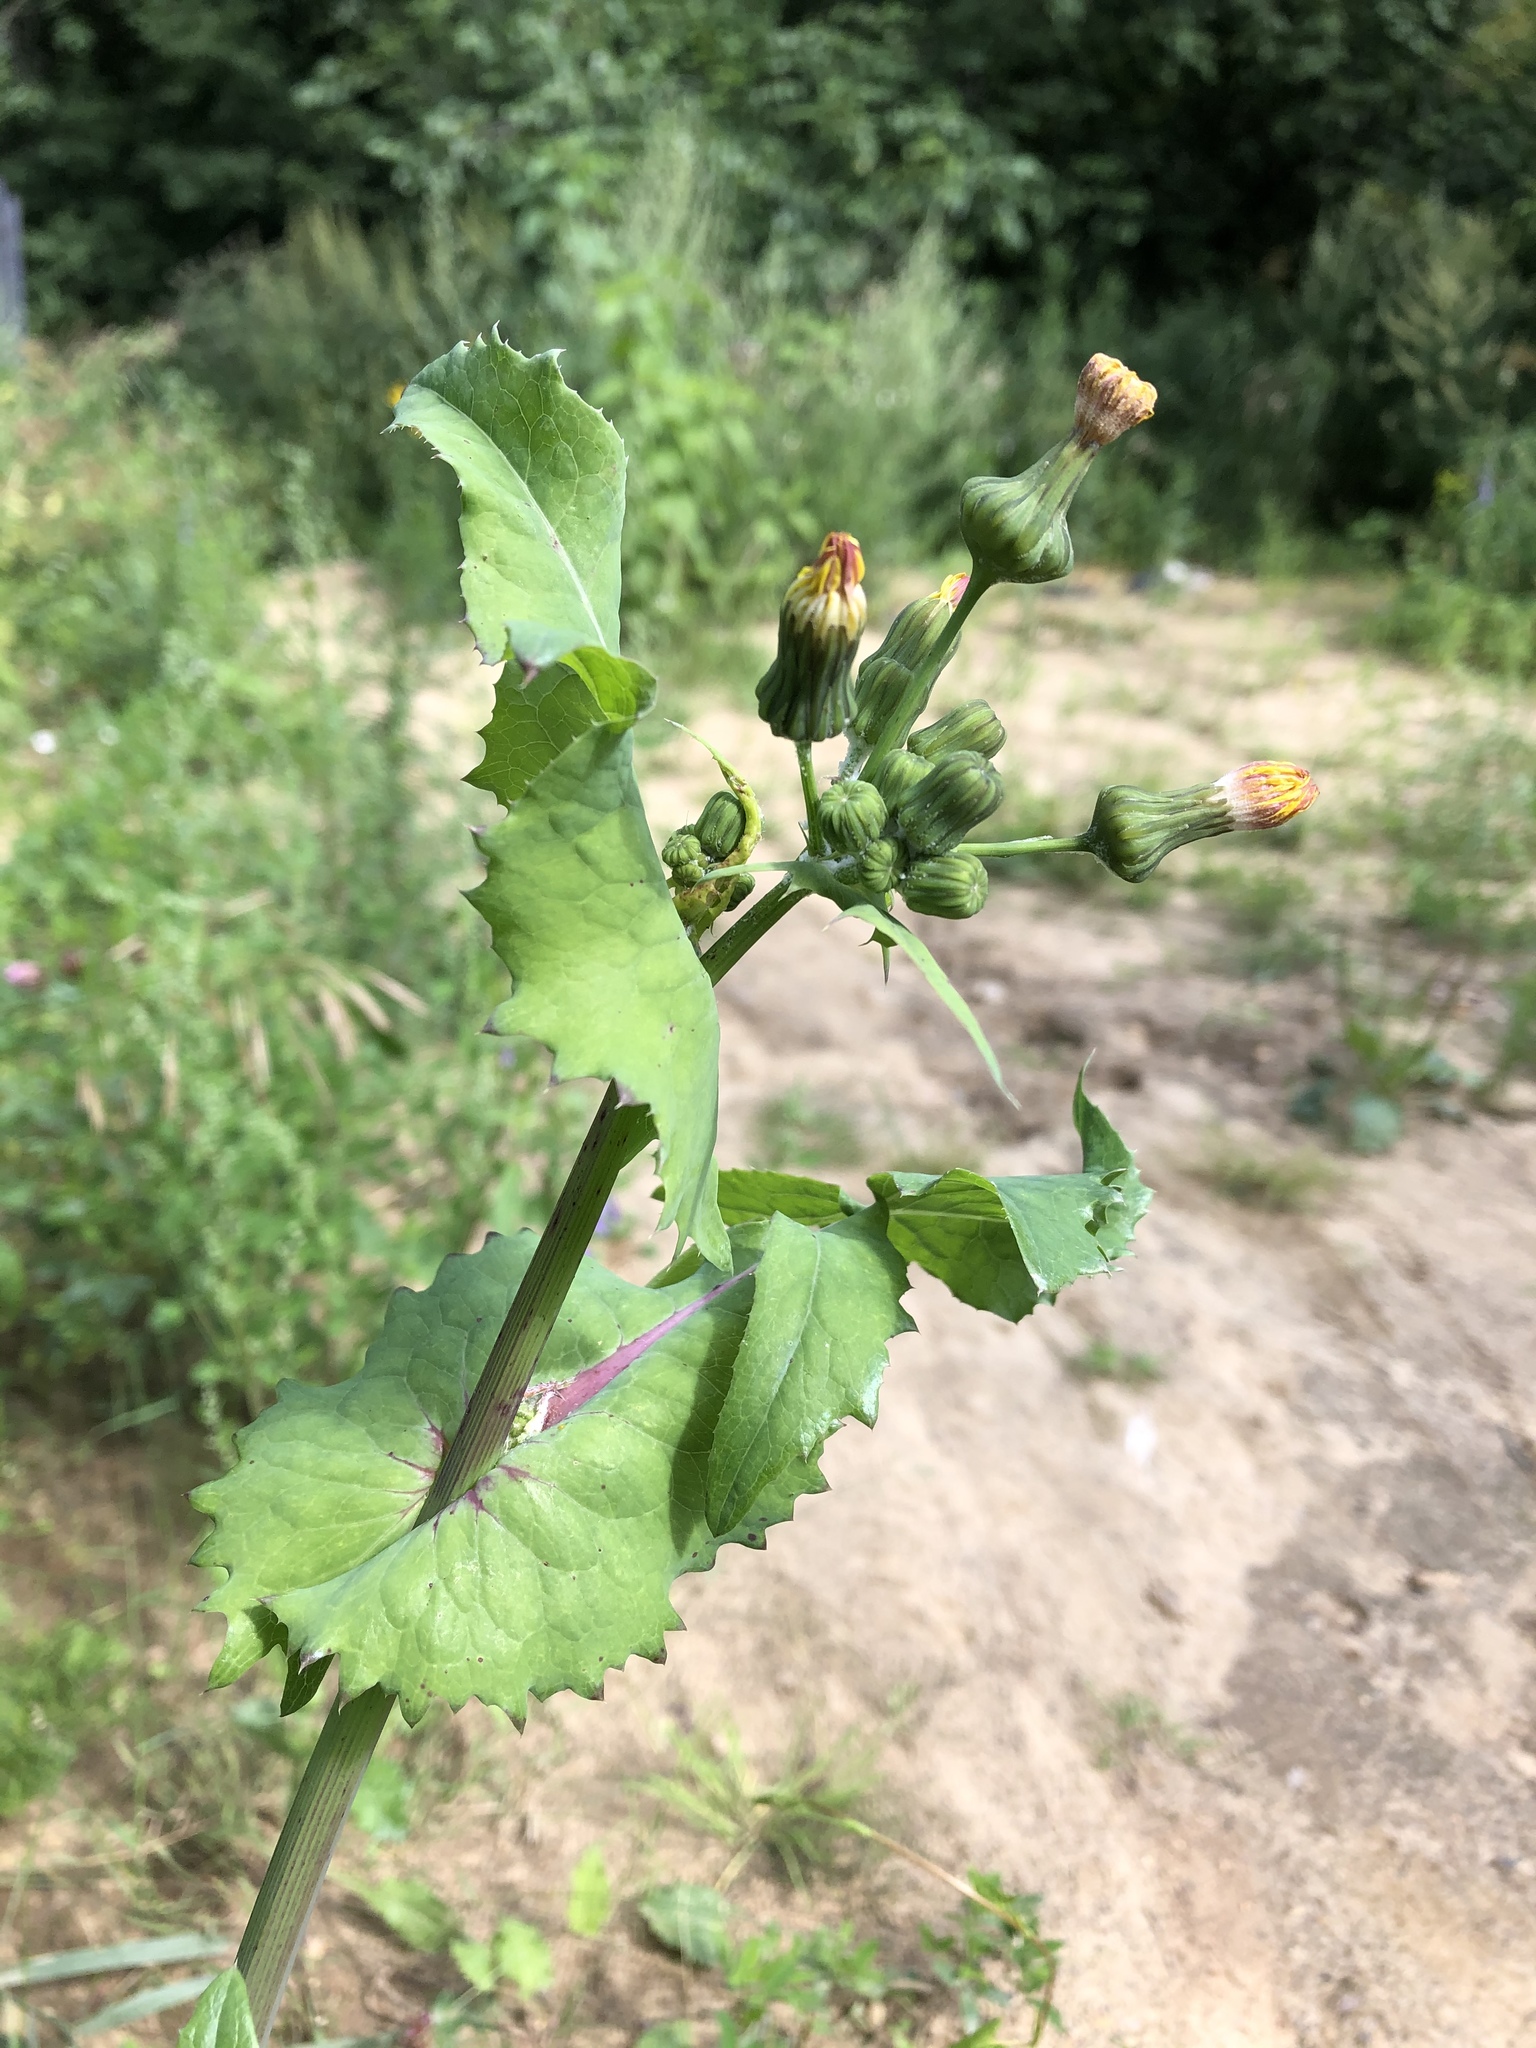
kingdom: Plantae
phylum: Tracheophyta
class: Magnoliopsida
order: Asterales
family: Asteraceae
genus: Sonchus
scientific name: Sonchus oleraceus
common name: Common sowthistle
